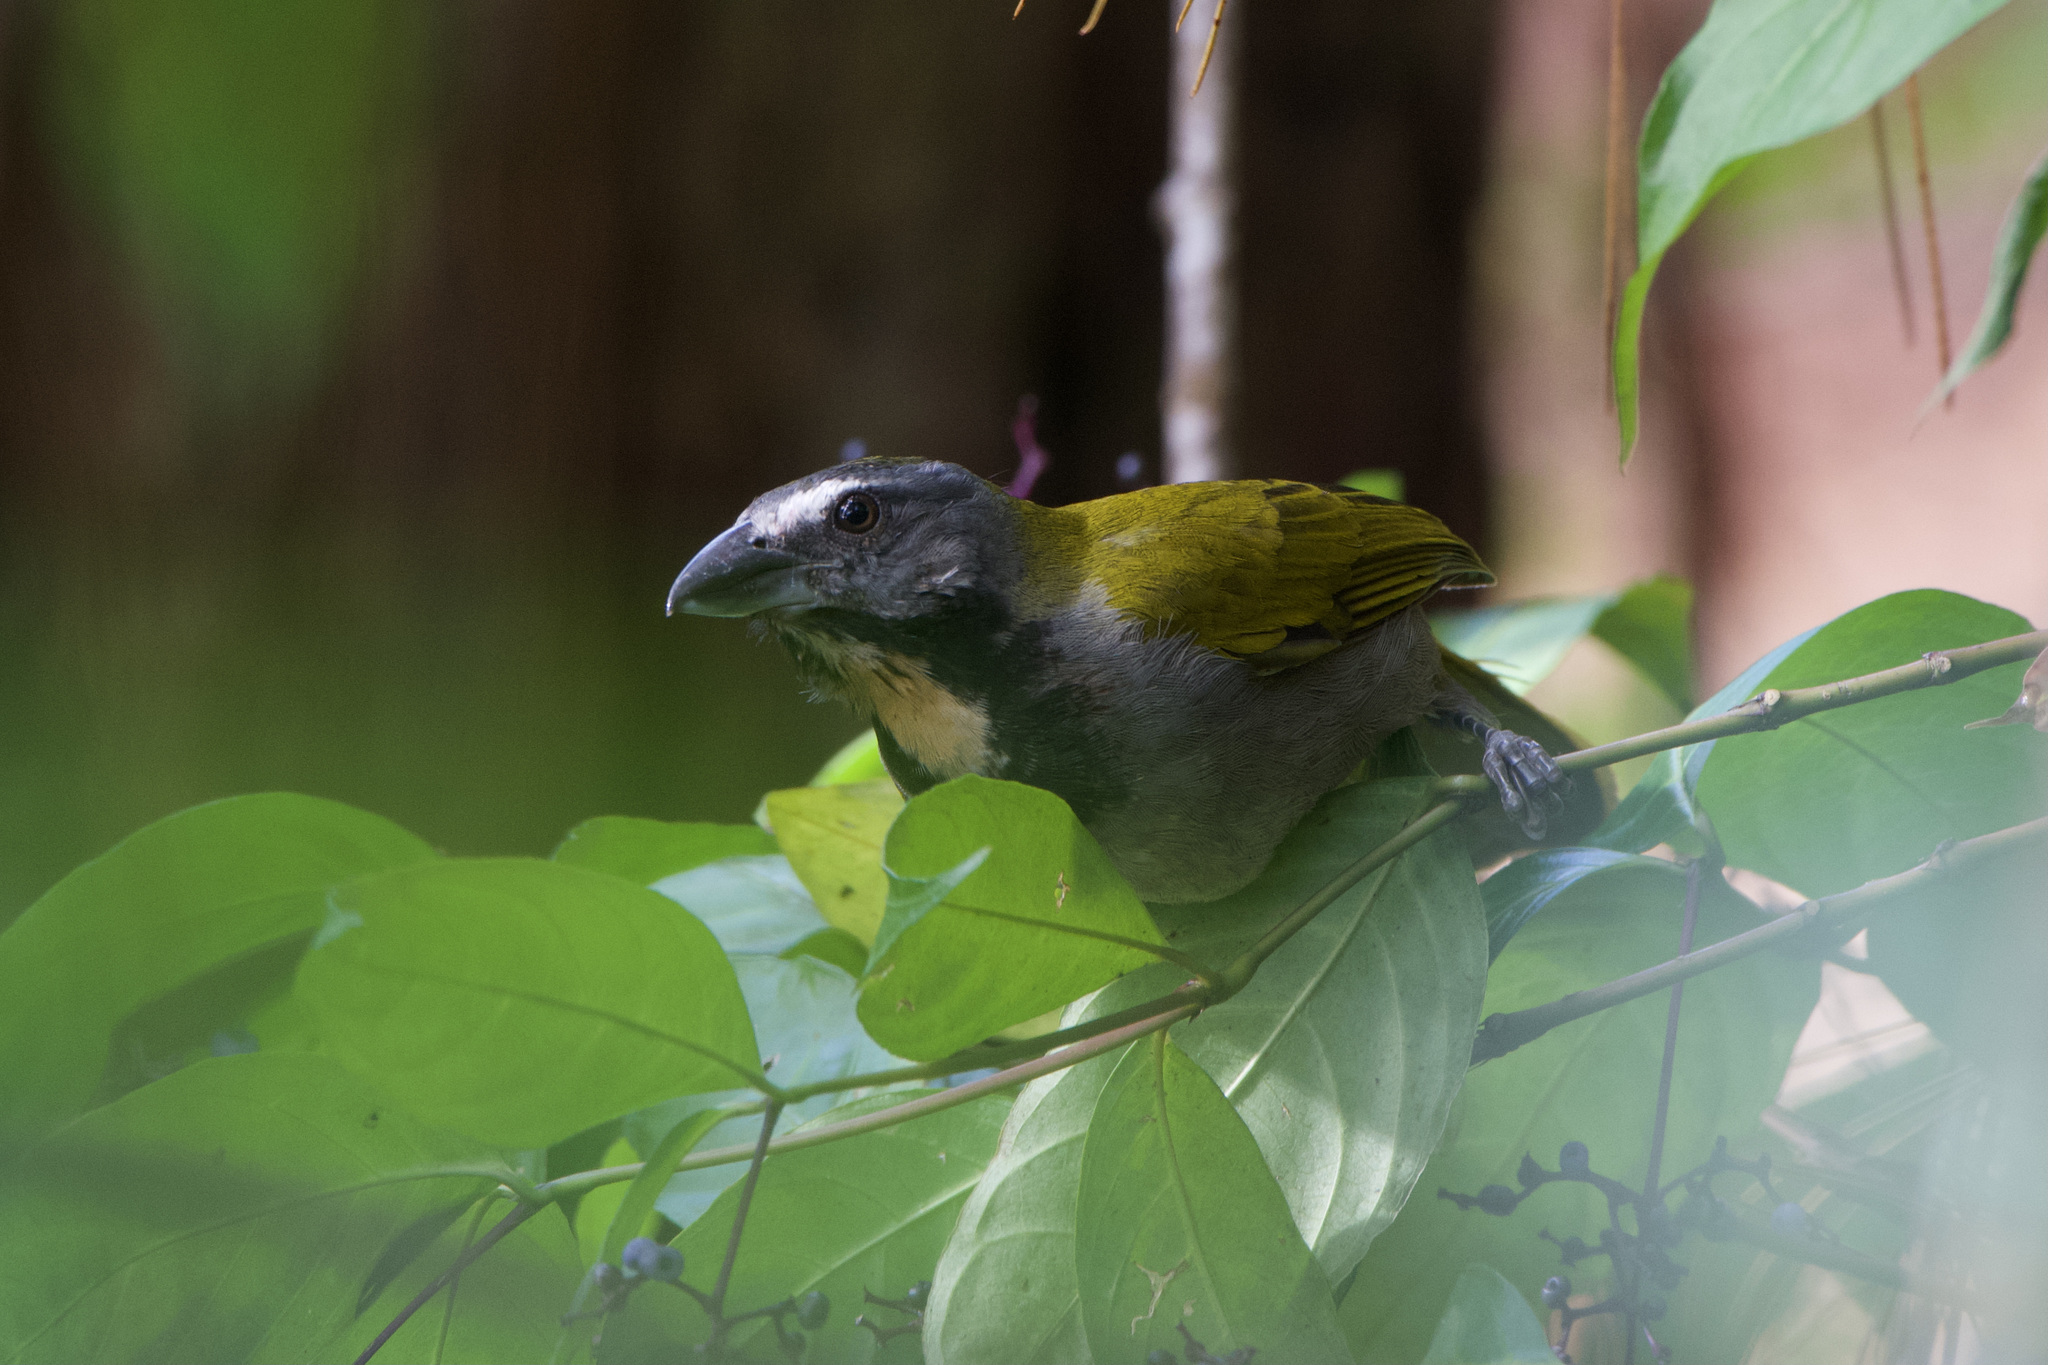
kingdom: Animalia
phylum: Chordata
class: Aves
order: Passeriformes
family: Thraupidae
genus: Saltator
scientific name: Saltator maximus
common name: Buff-throated saltator
